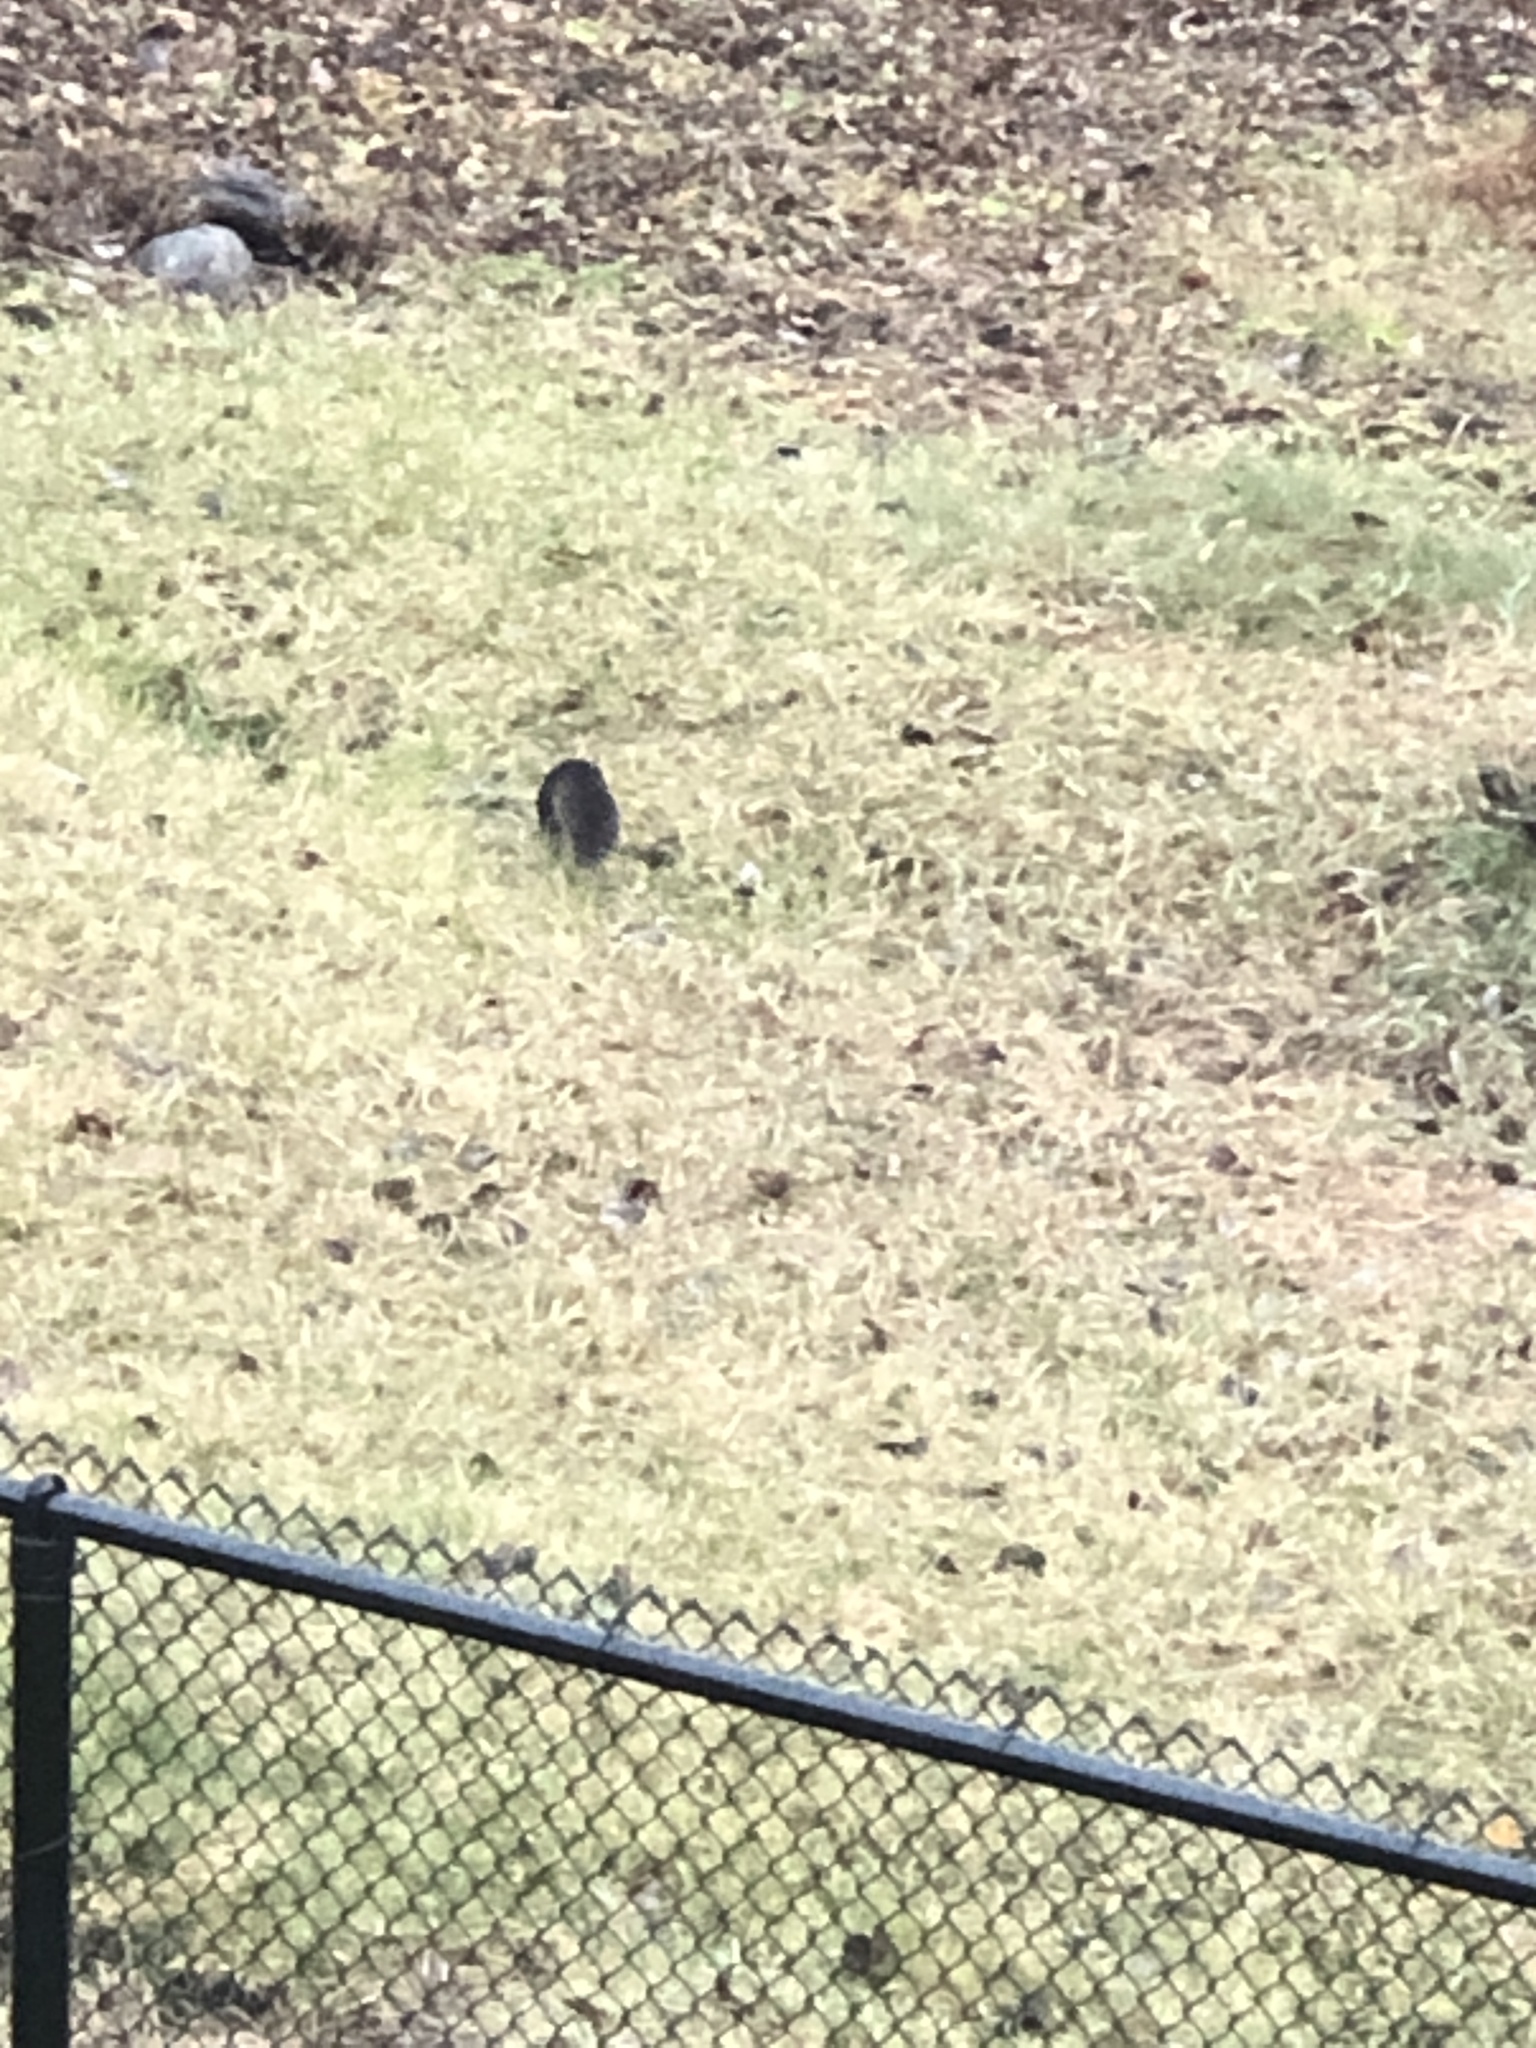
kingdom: Animalia
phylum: Chordata
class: Mammalia
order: Rodentia
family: Sciuridae
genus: Sciurus
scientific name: Sciurus carolinensis
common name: Eastern gray squirrel
